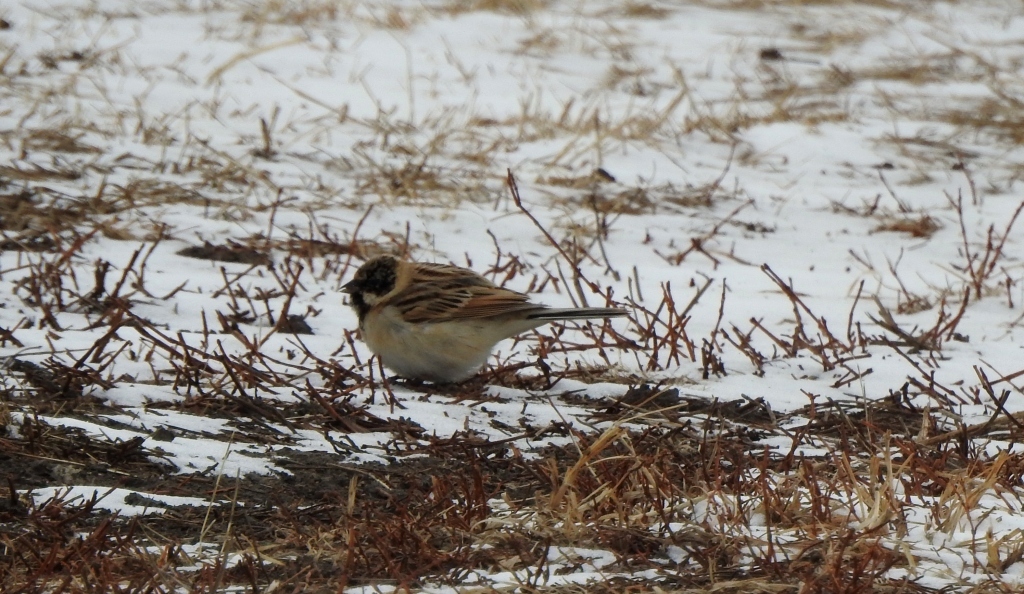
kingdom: Animalia
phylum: Chordata
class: Aves
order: Passeriformes
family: Emberizidae
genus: Emberiza
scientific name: Emberiza pallasi
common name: Pallas's reed bunting
